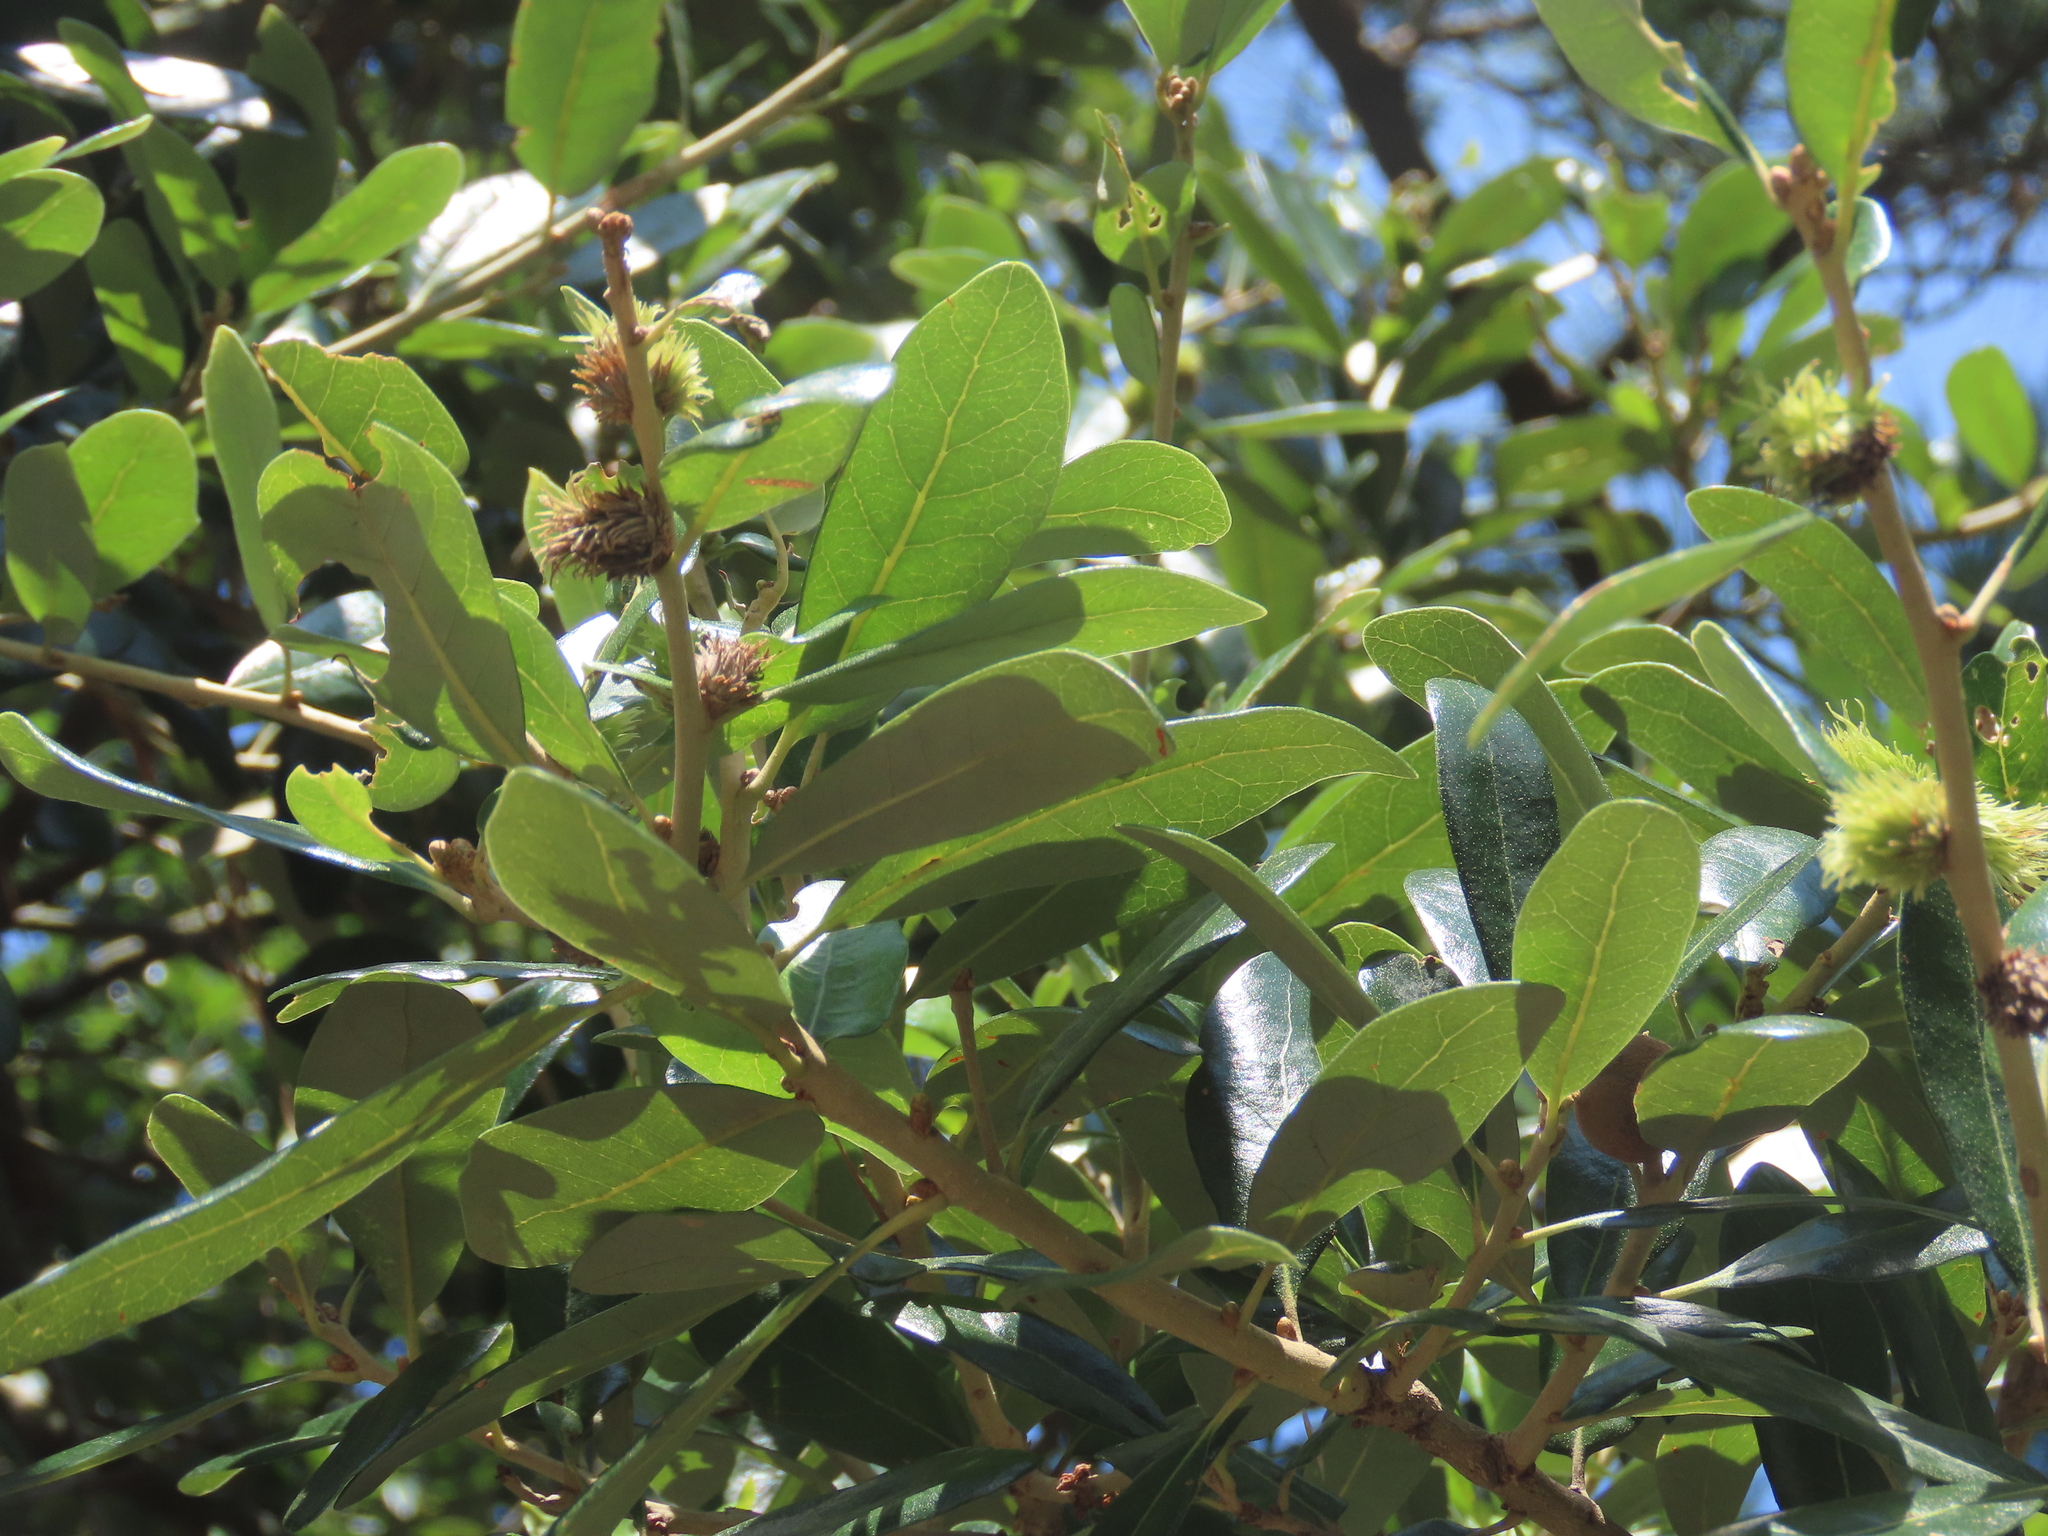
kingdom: Animalia
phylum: Arthropoda
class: Insecta
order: Hymenoptera
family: Cynipidae
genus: Andricus
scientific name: Andricus quercusfoliatus
